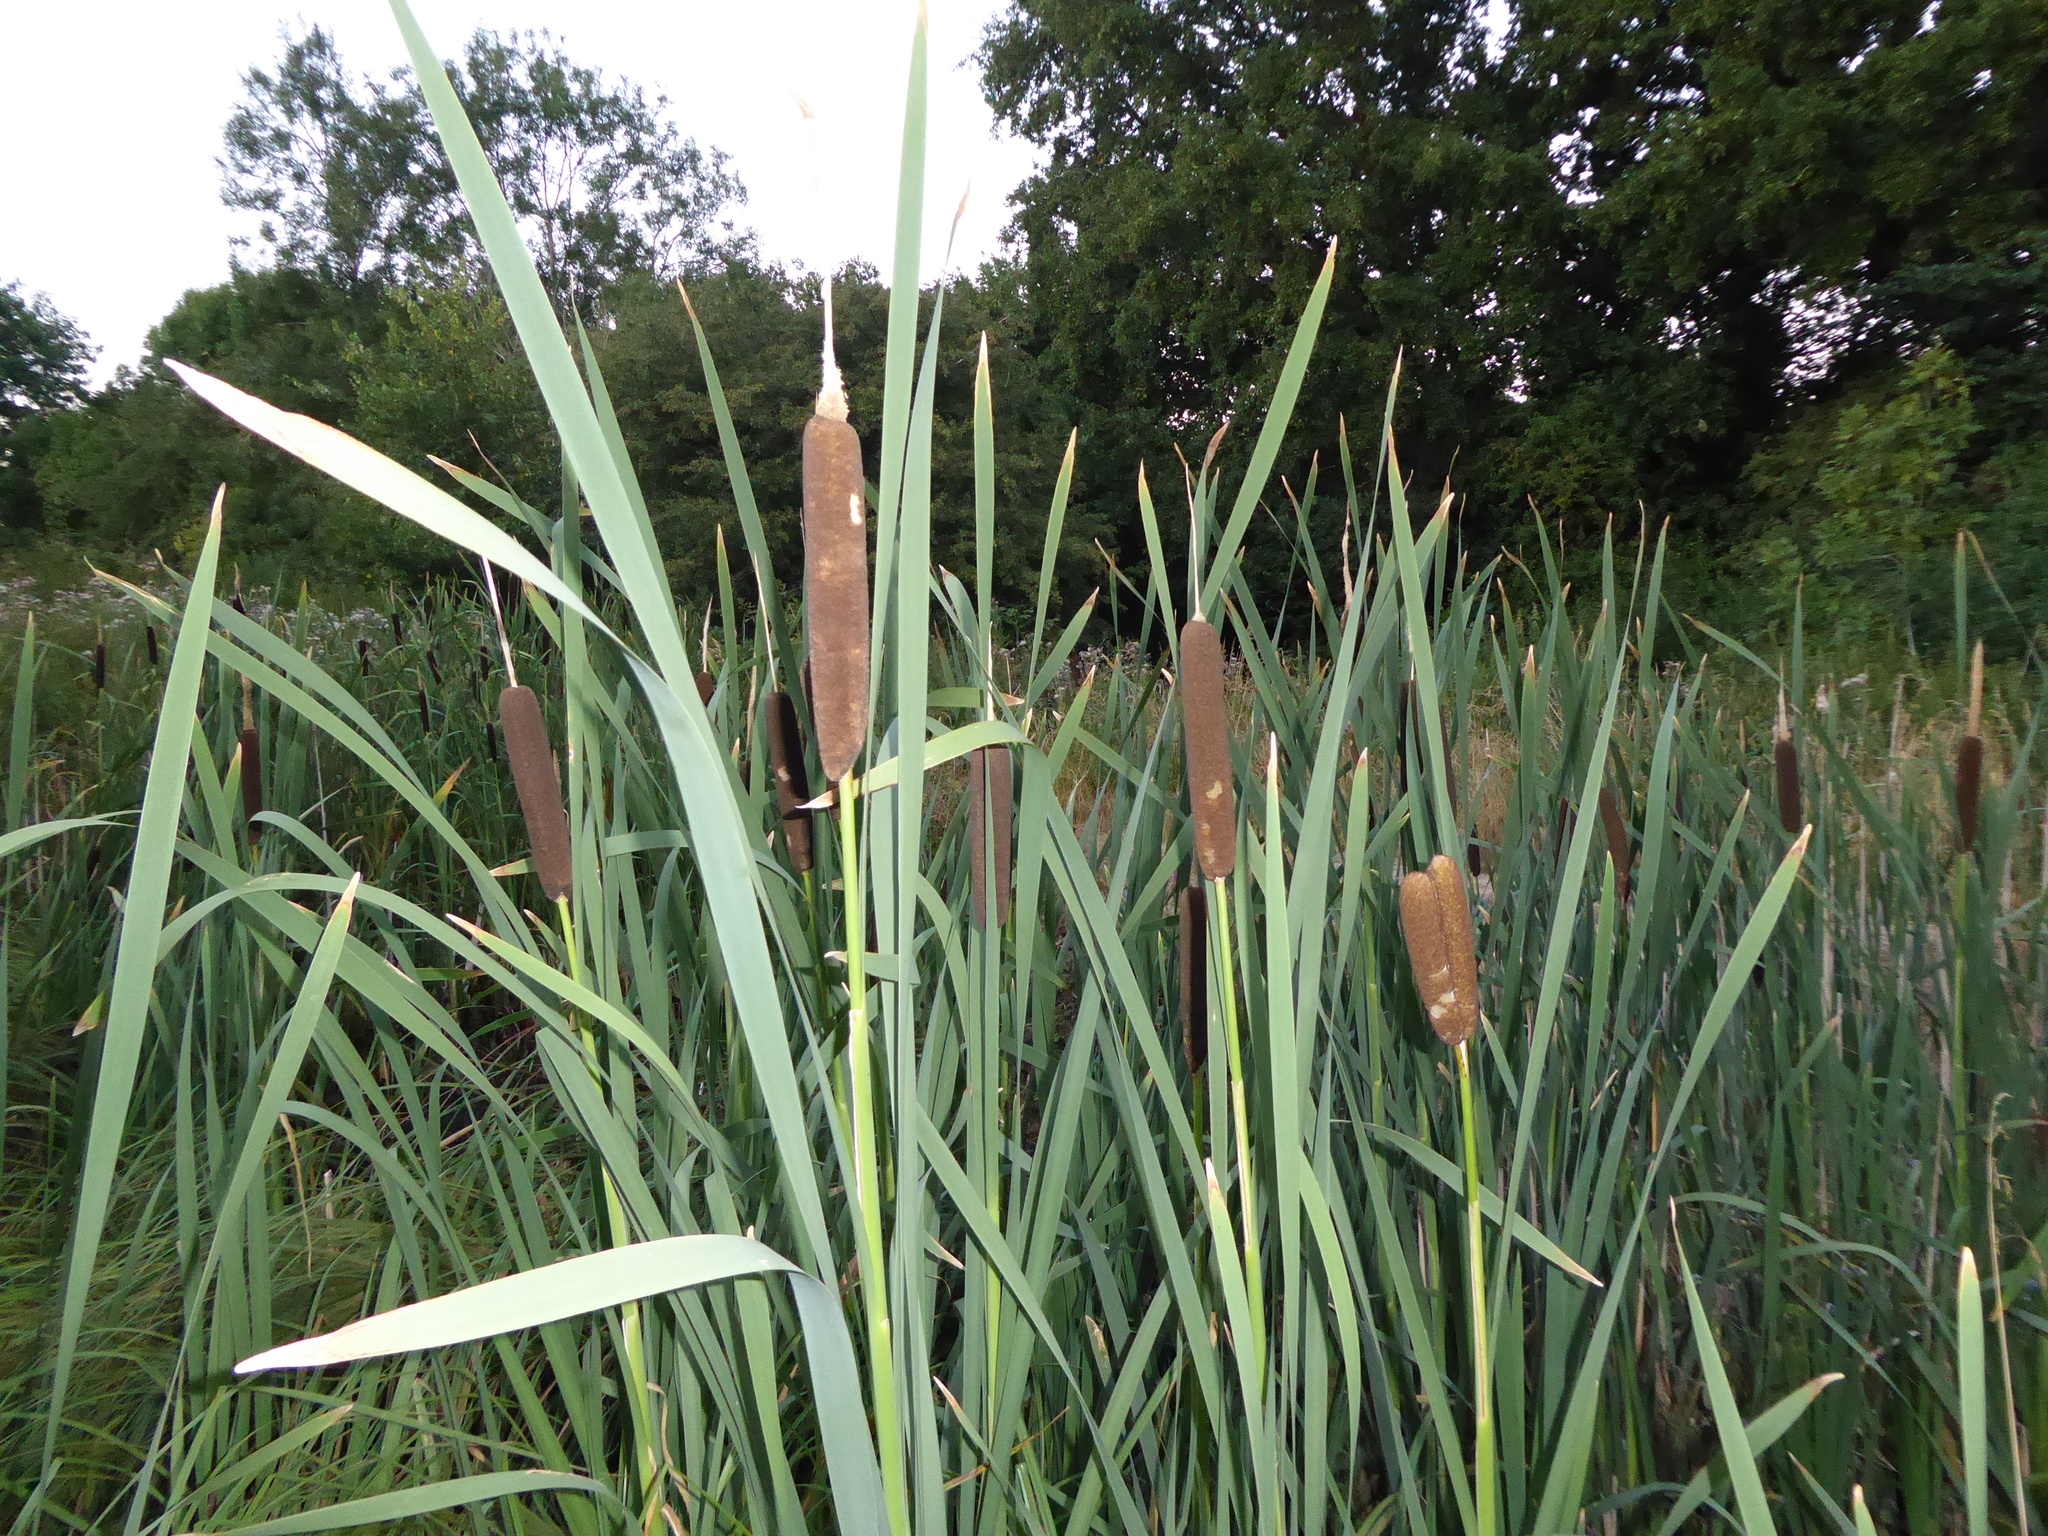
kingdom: Plantae
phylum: Tracheophyta
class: Liliopsida
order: Poales
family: Typhaceae
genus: Typha
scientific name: Typha latifolia
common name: Broadleaf cattail
